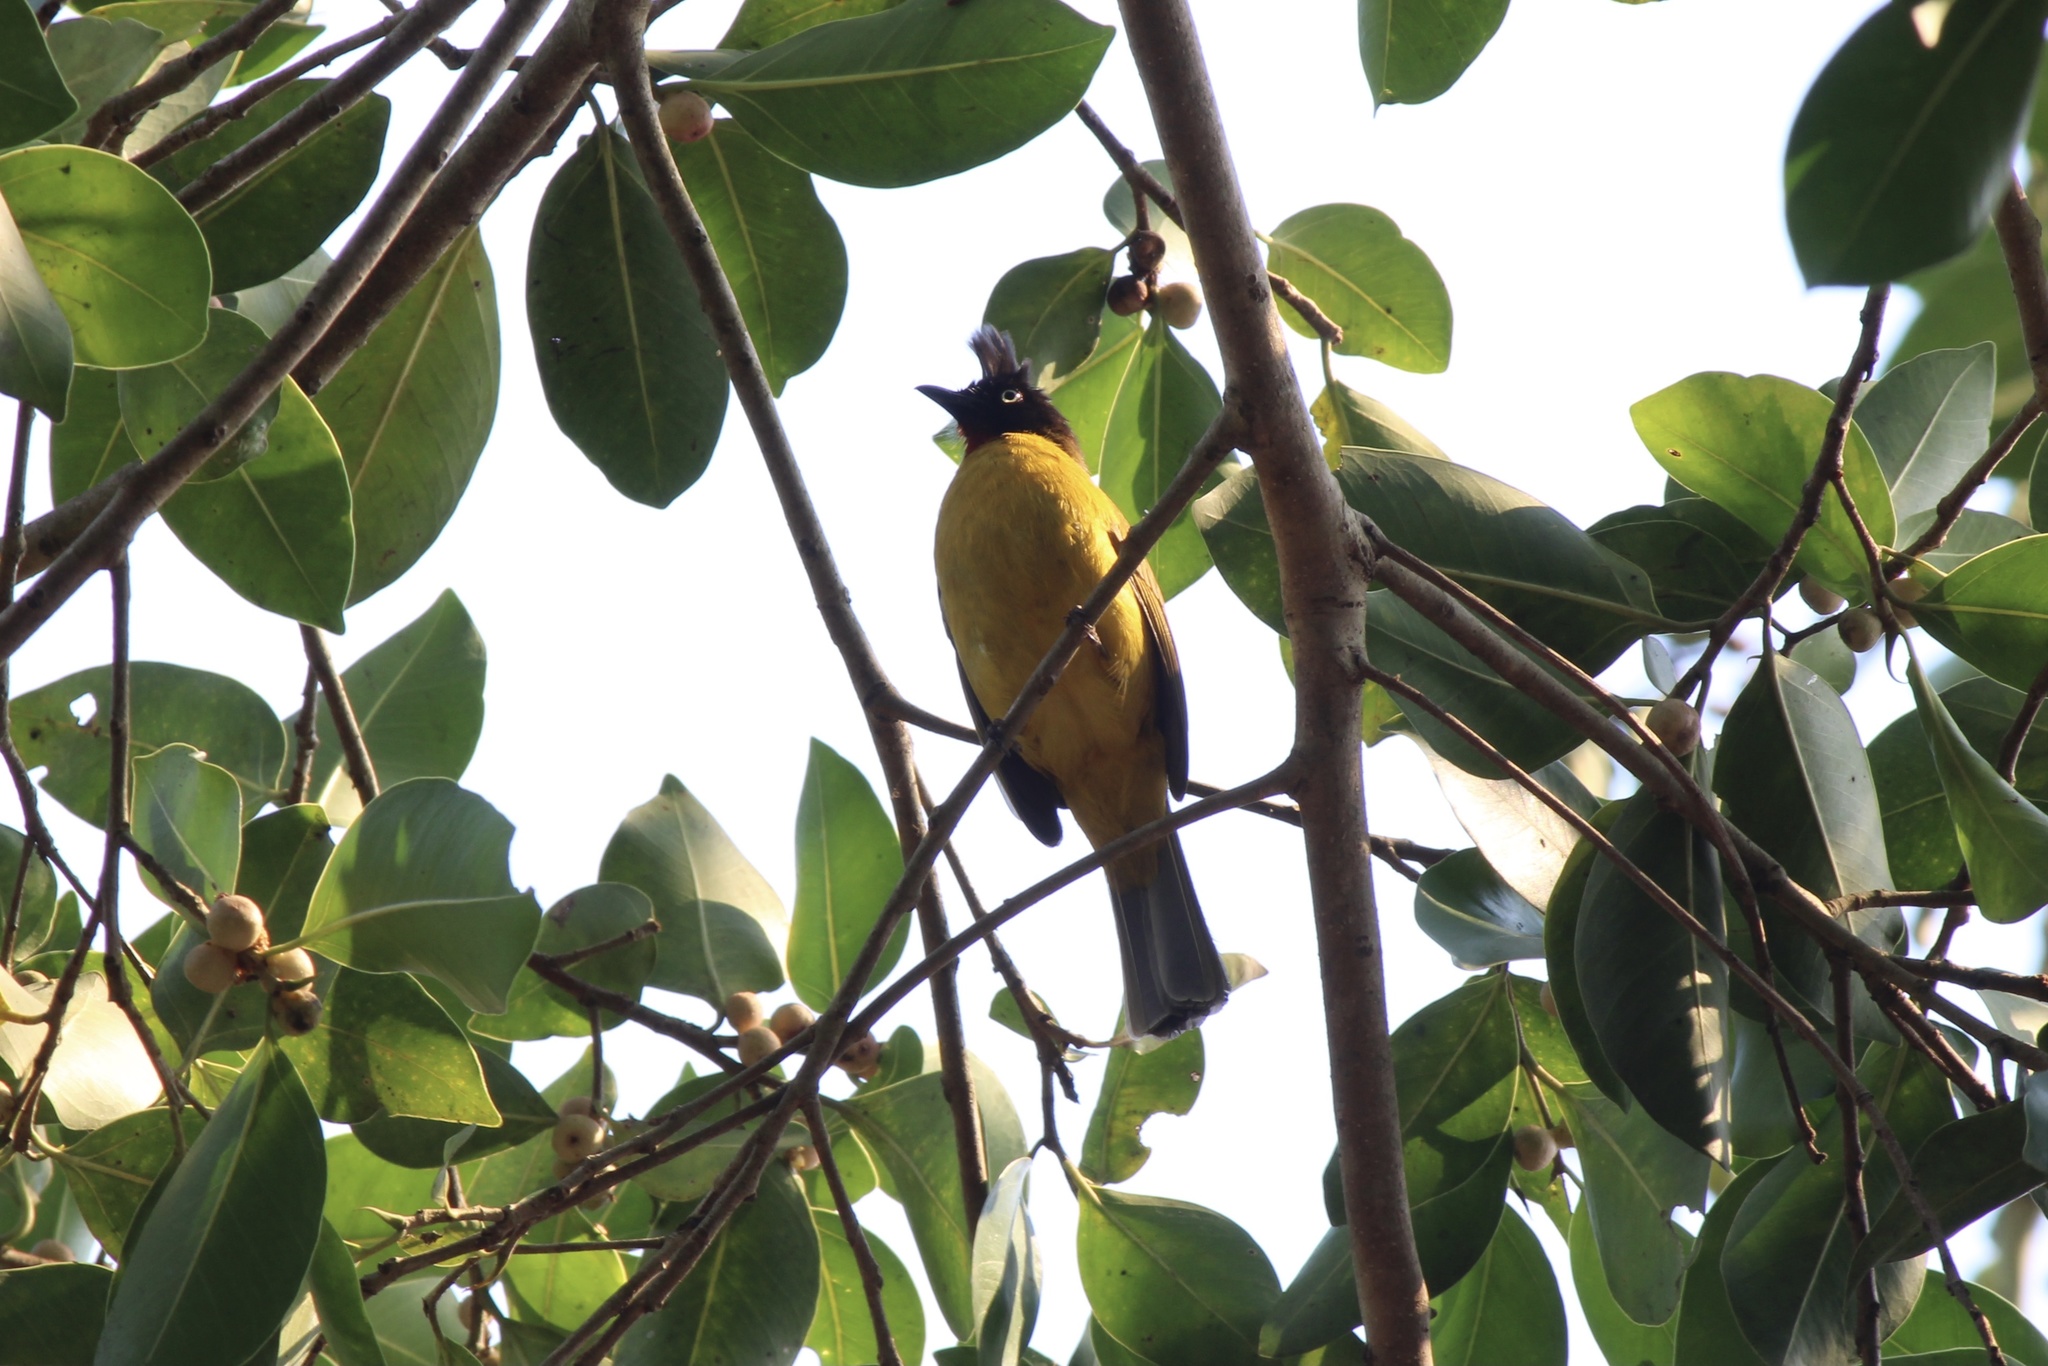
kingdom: Animalia
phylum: Chordata
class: Aves
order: Passeriformes
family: Pycnonotidae
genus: Pycnonotus
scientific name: Pycnonotus flaviventris
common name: Black-crested bulbul
